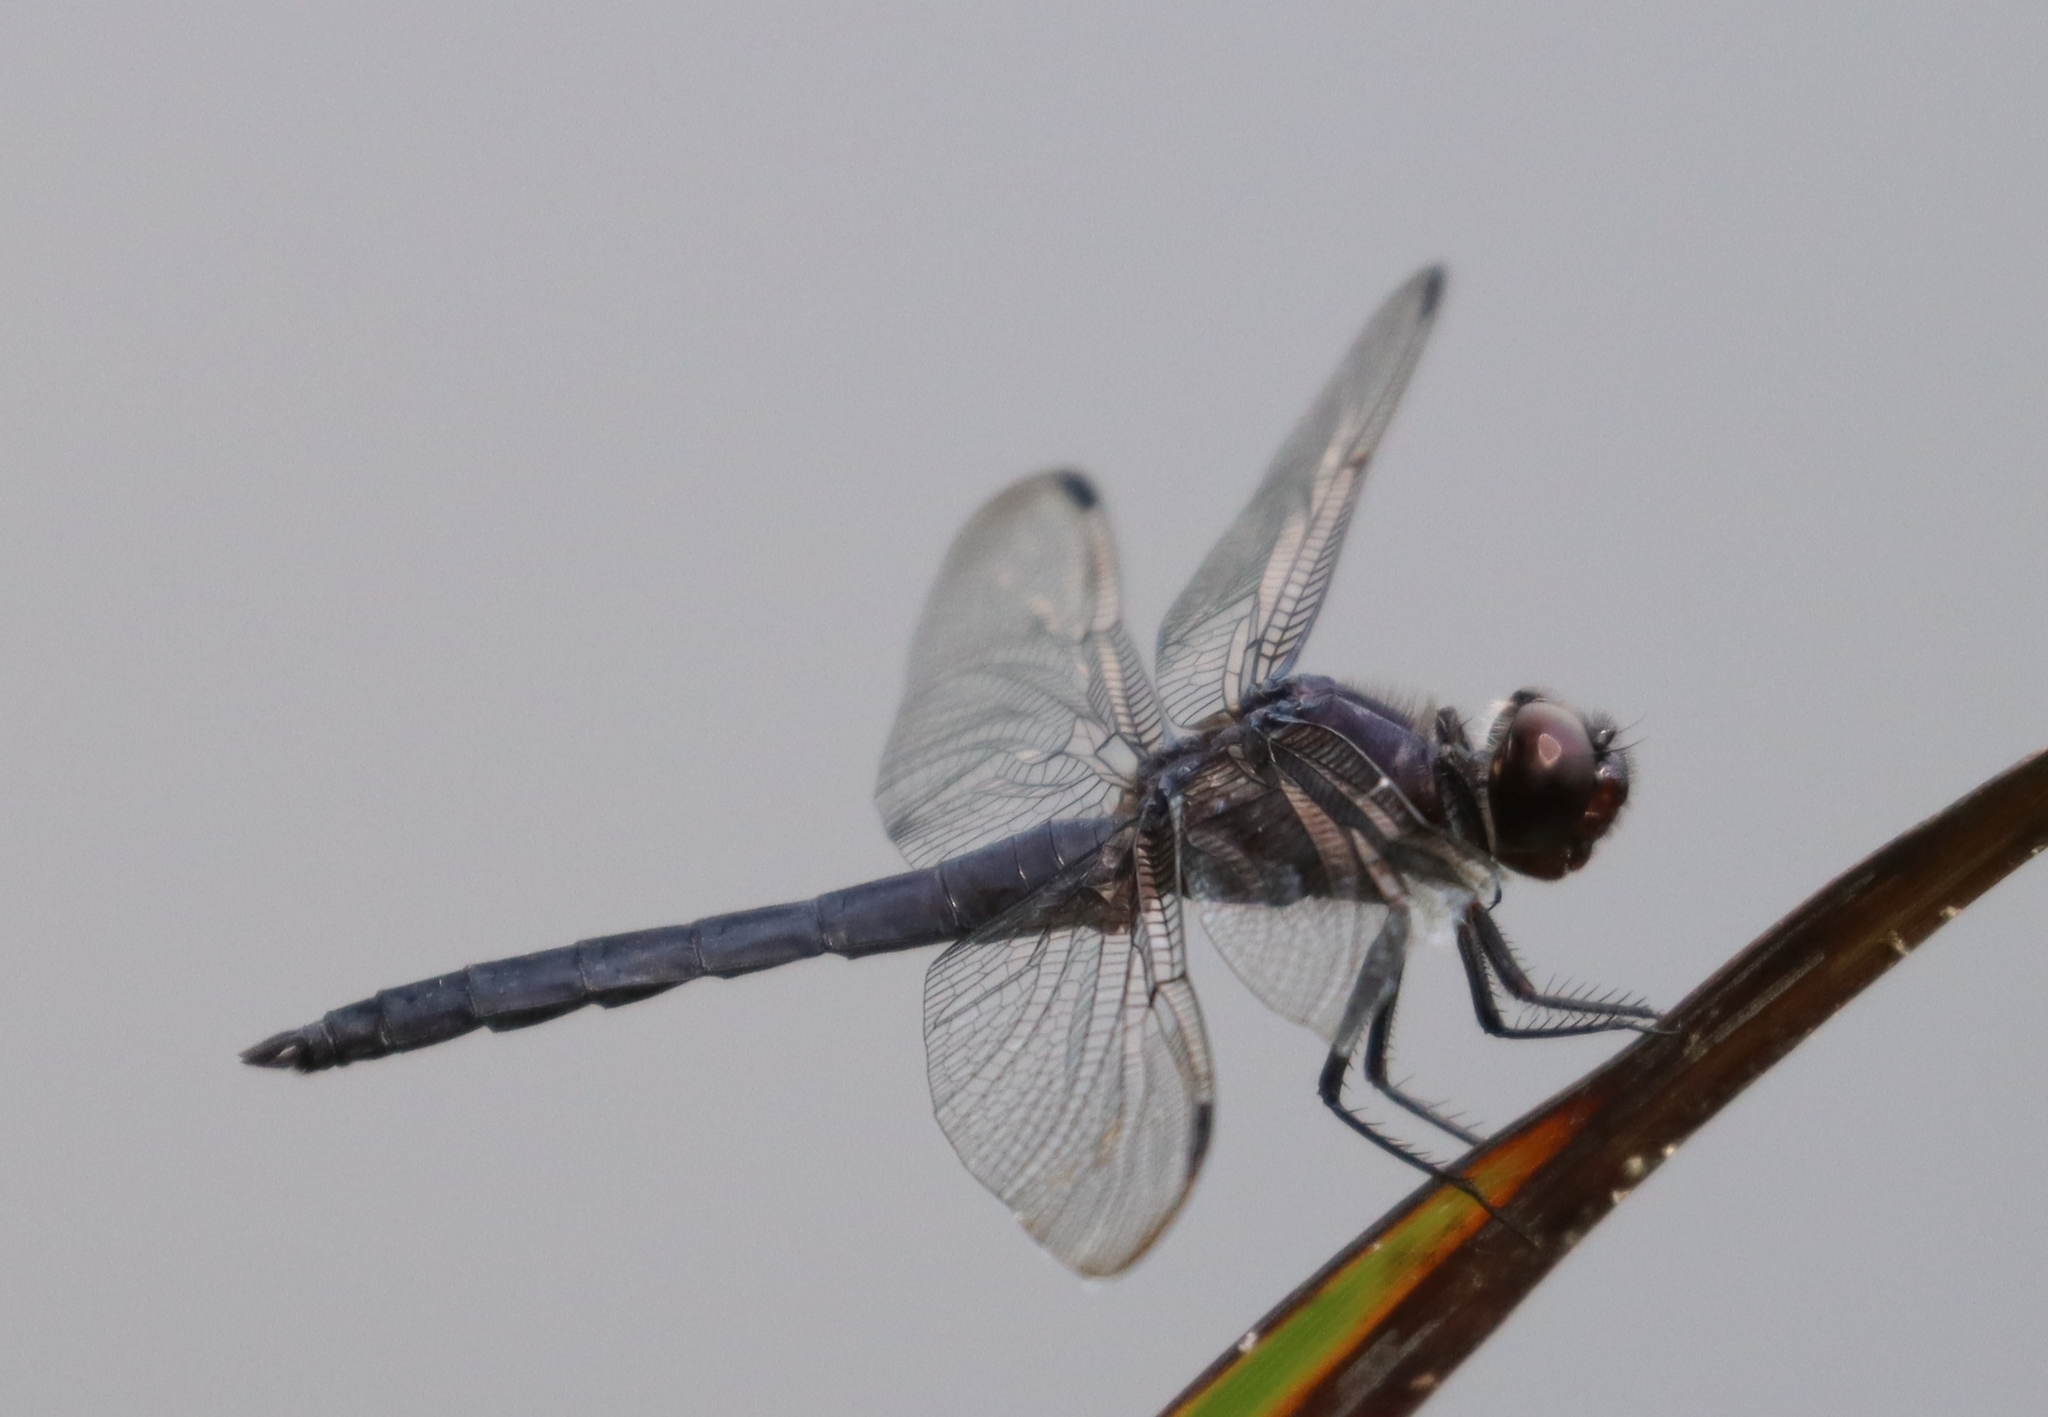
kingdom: Animalia
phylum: Arthropoda
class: Insecta
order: Odonata
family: Libellulidae
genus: Libellula
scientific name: Libellula incesta
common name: Slaty skimmer
